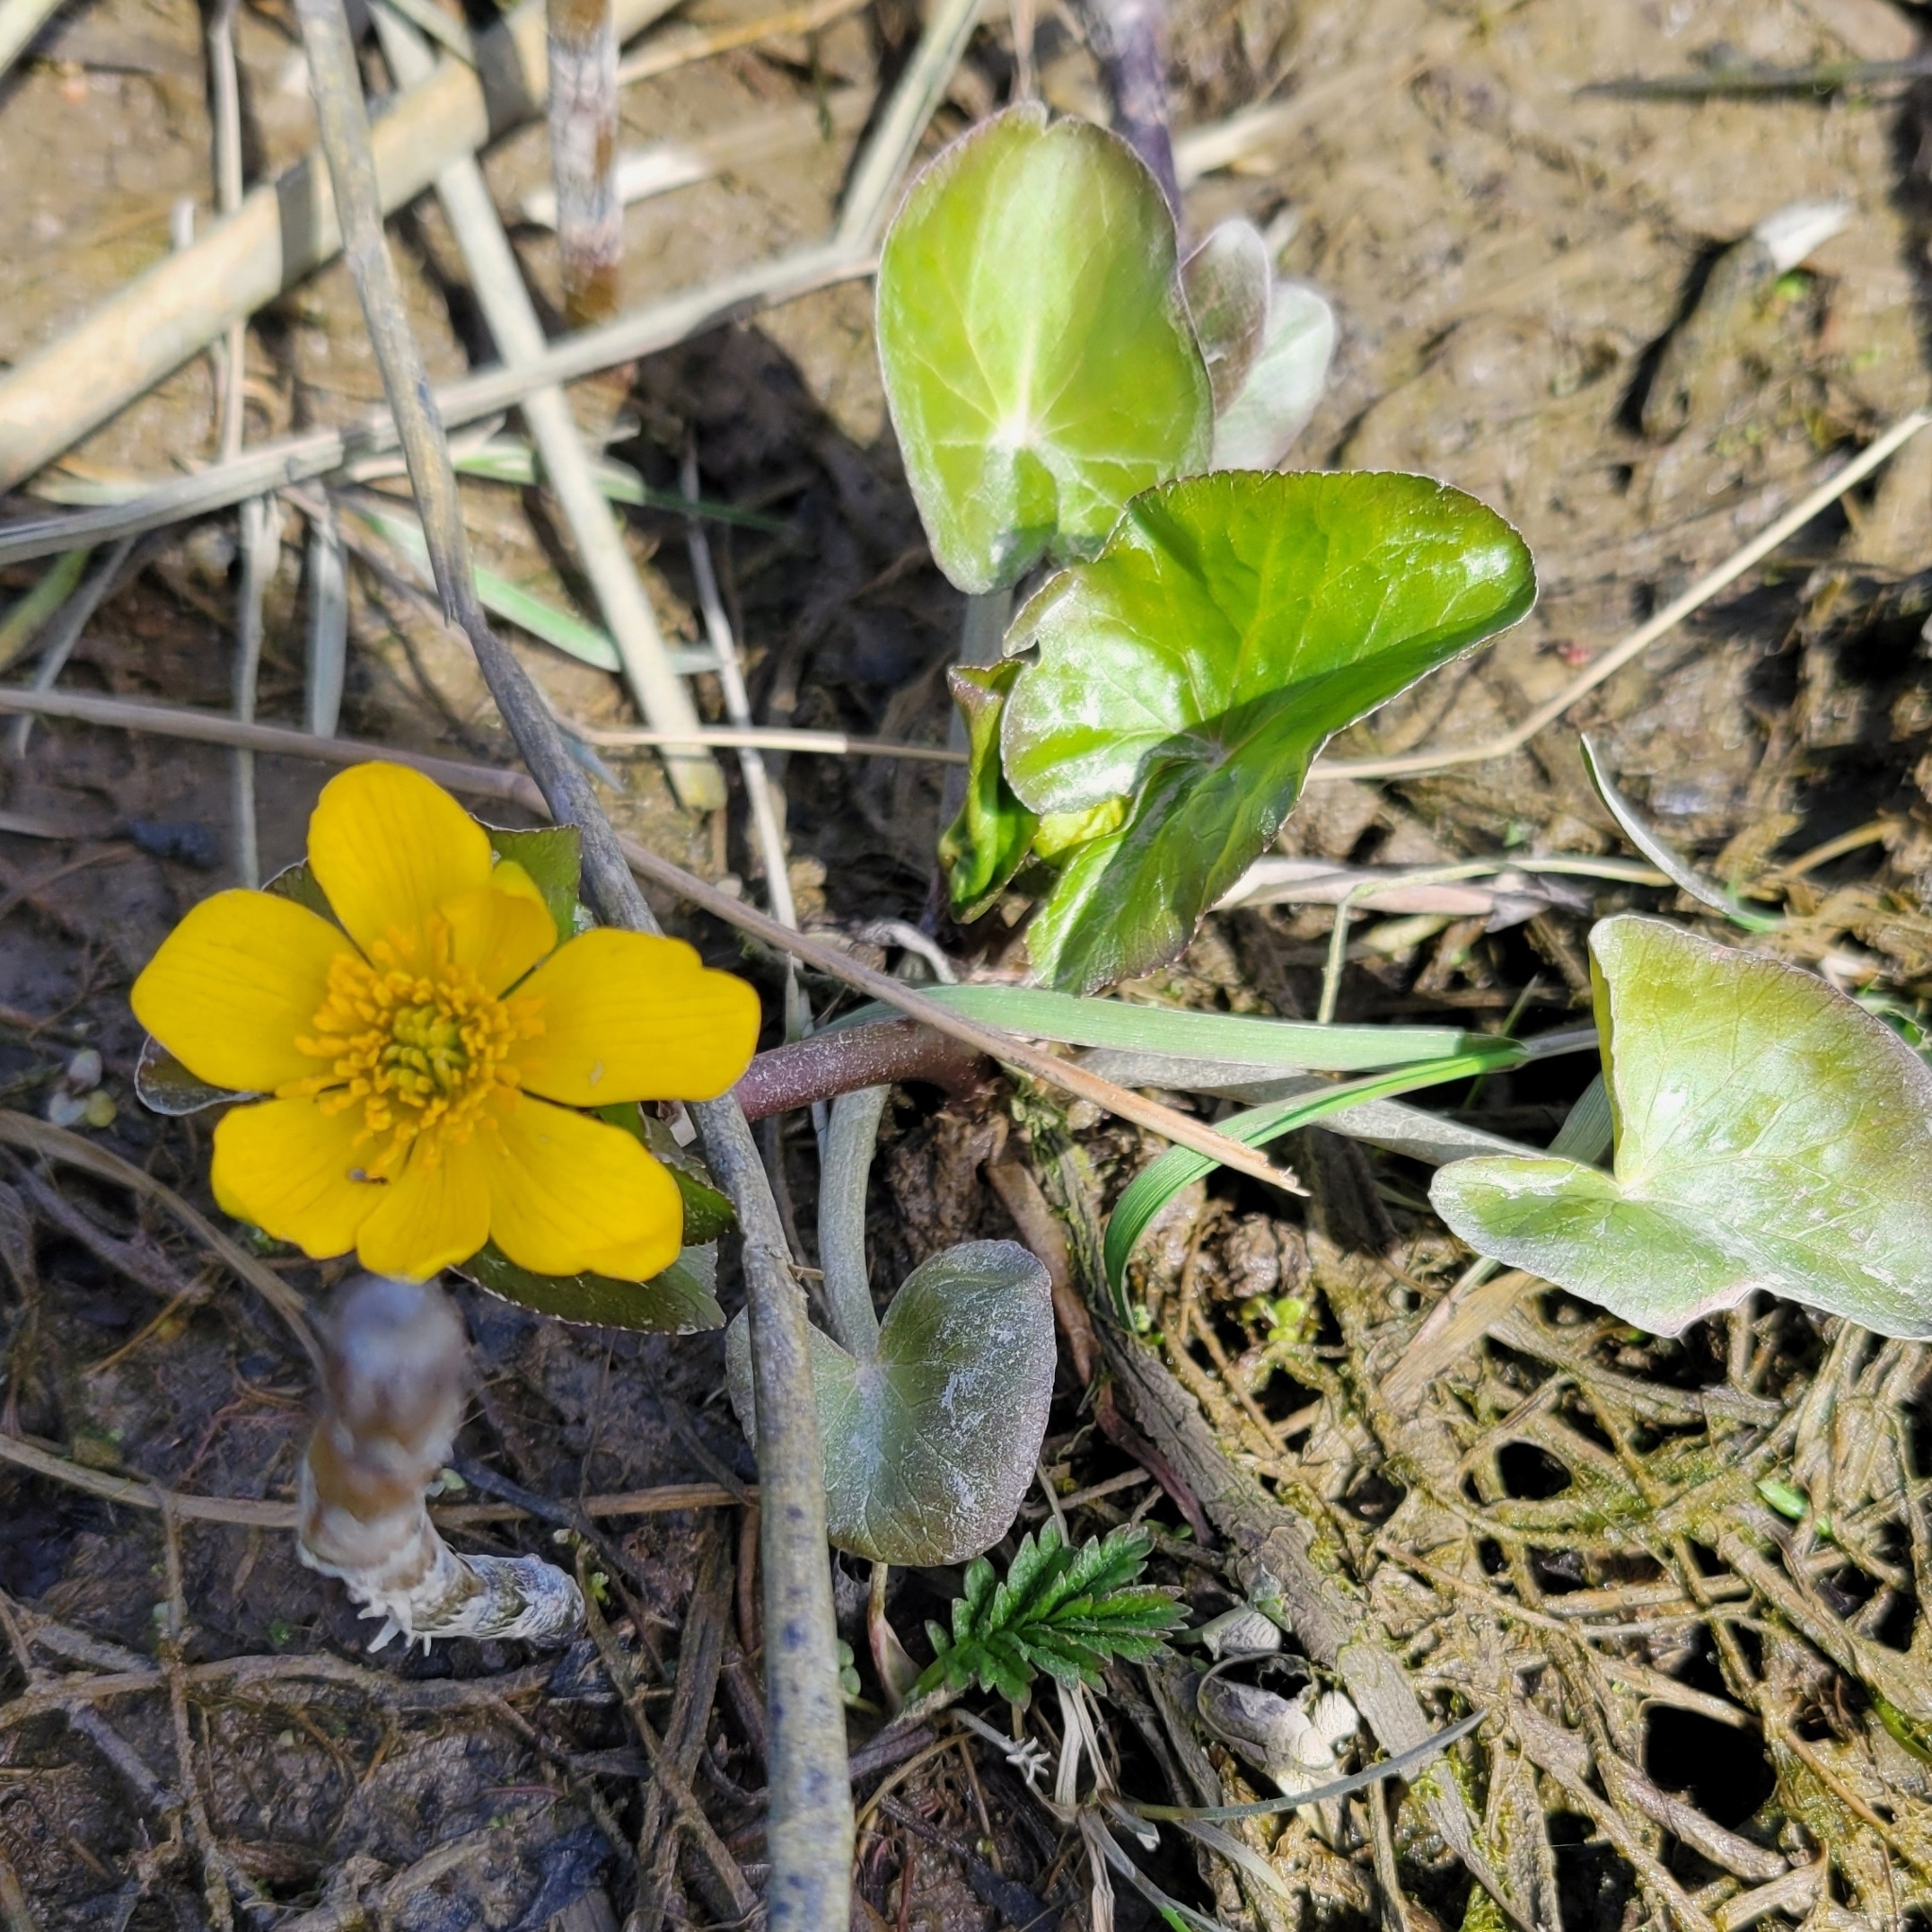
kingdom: Plantae
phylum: Tracheophyta
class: Magnoliopsida
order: Ranunculales
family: Ranunculaceae
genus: Caltha
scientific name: Caltha palustris
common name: Marsh marigold
